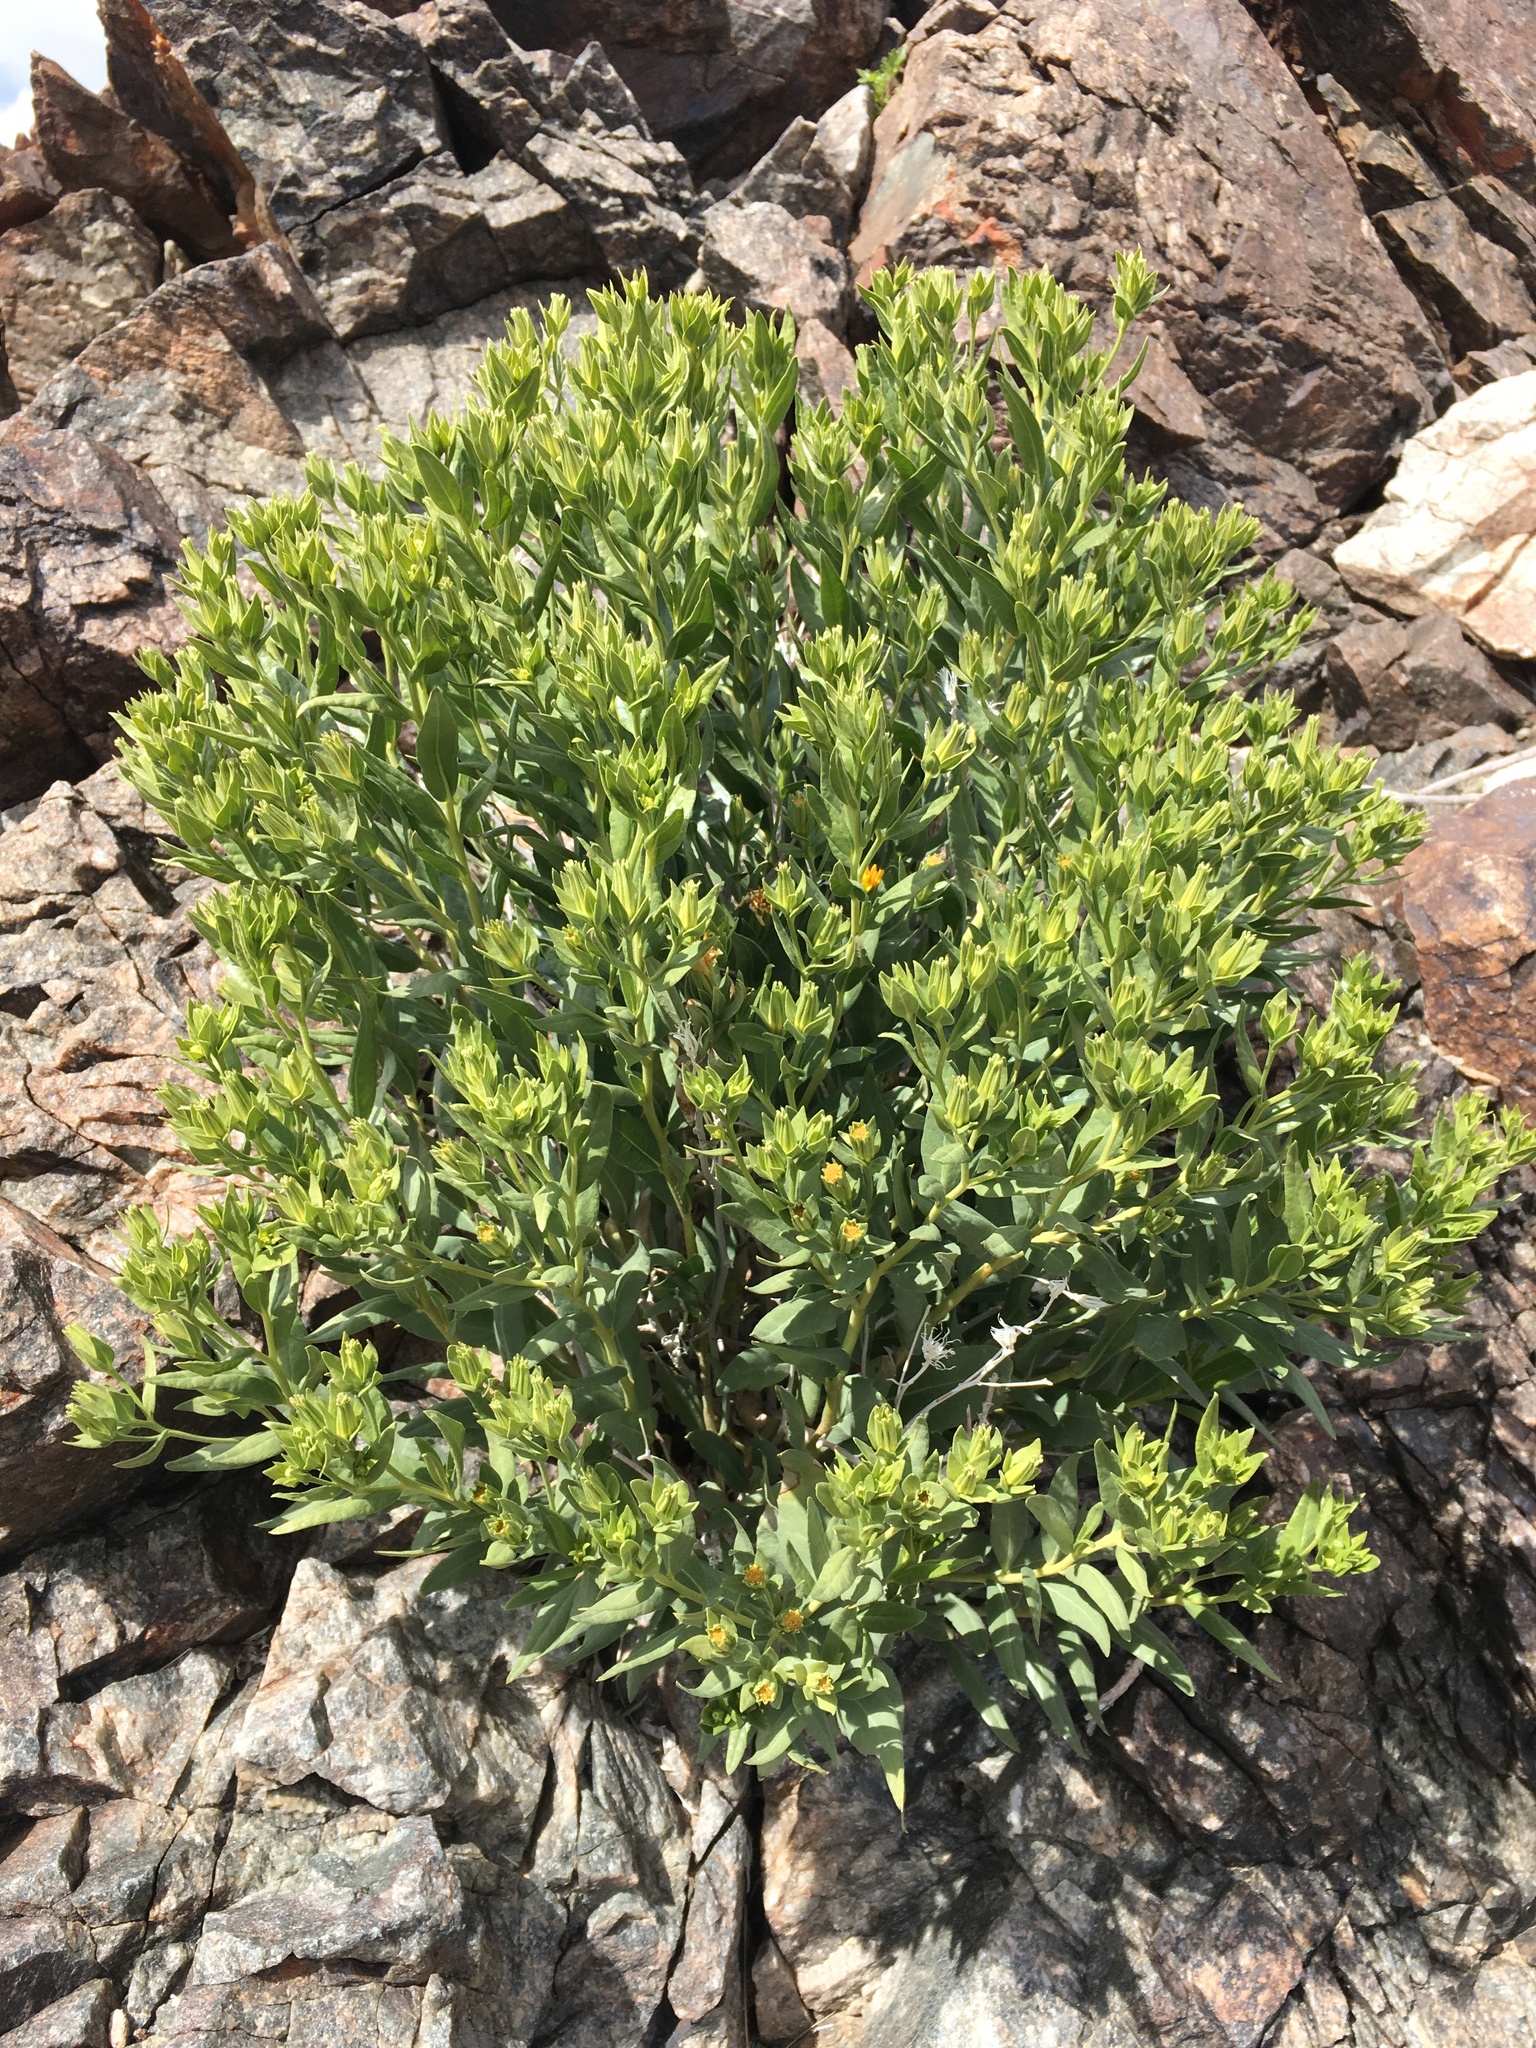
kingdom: Plantae
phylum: Tracheophyta
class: Magnoliopsida
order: Asterales
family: Asteraceae
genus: Trixis
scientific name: Trixis californica
